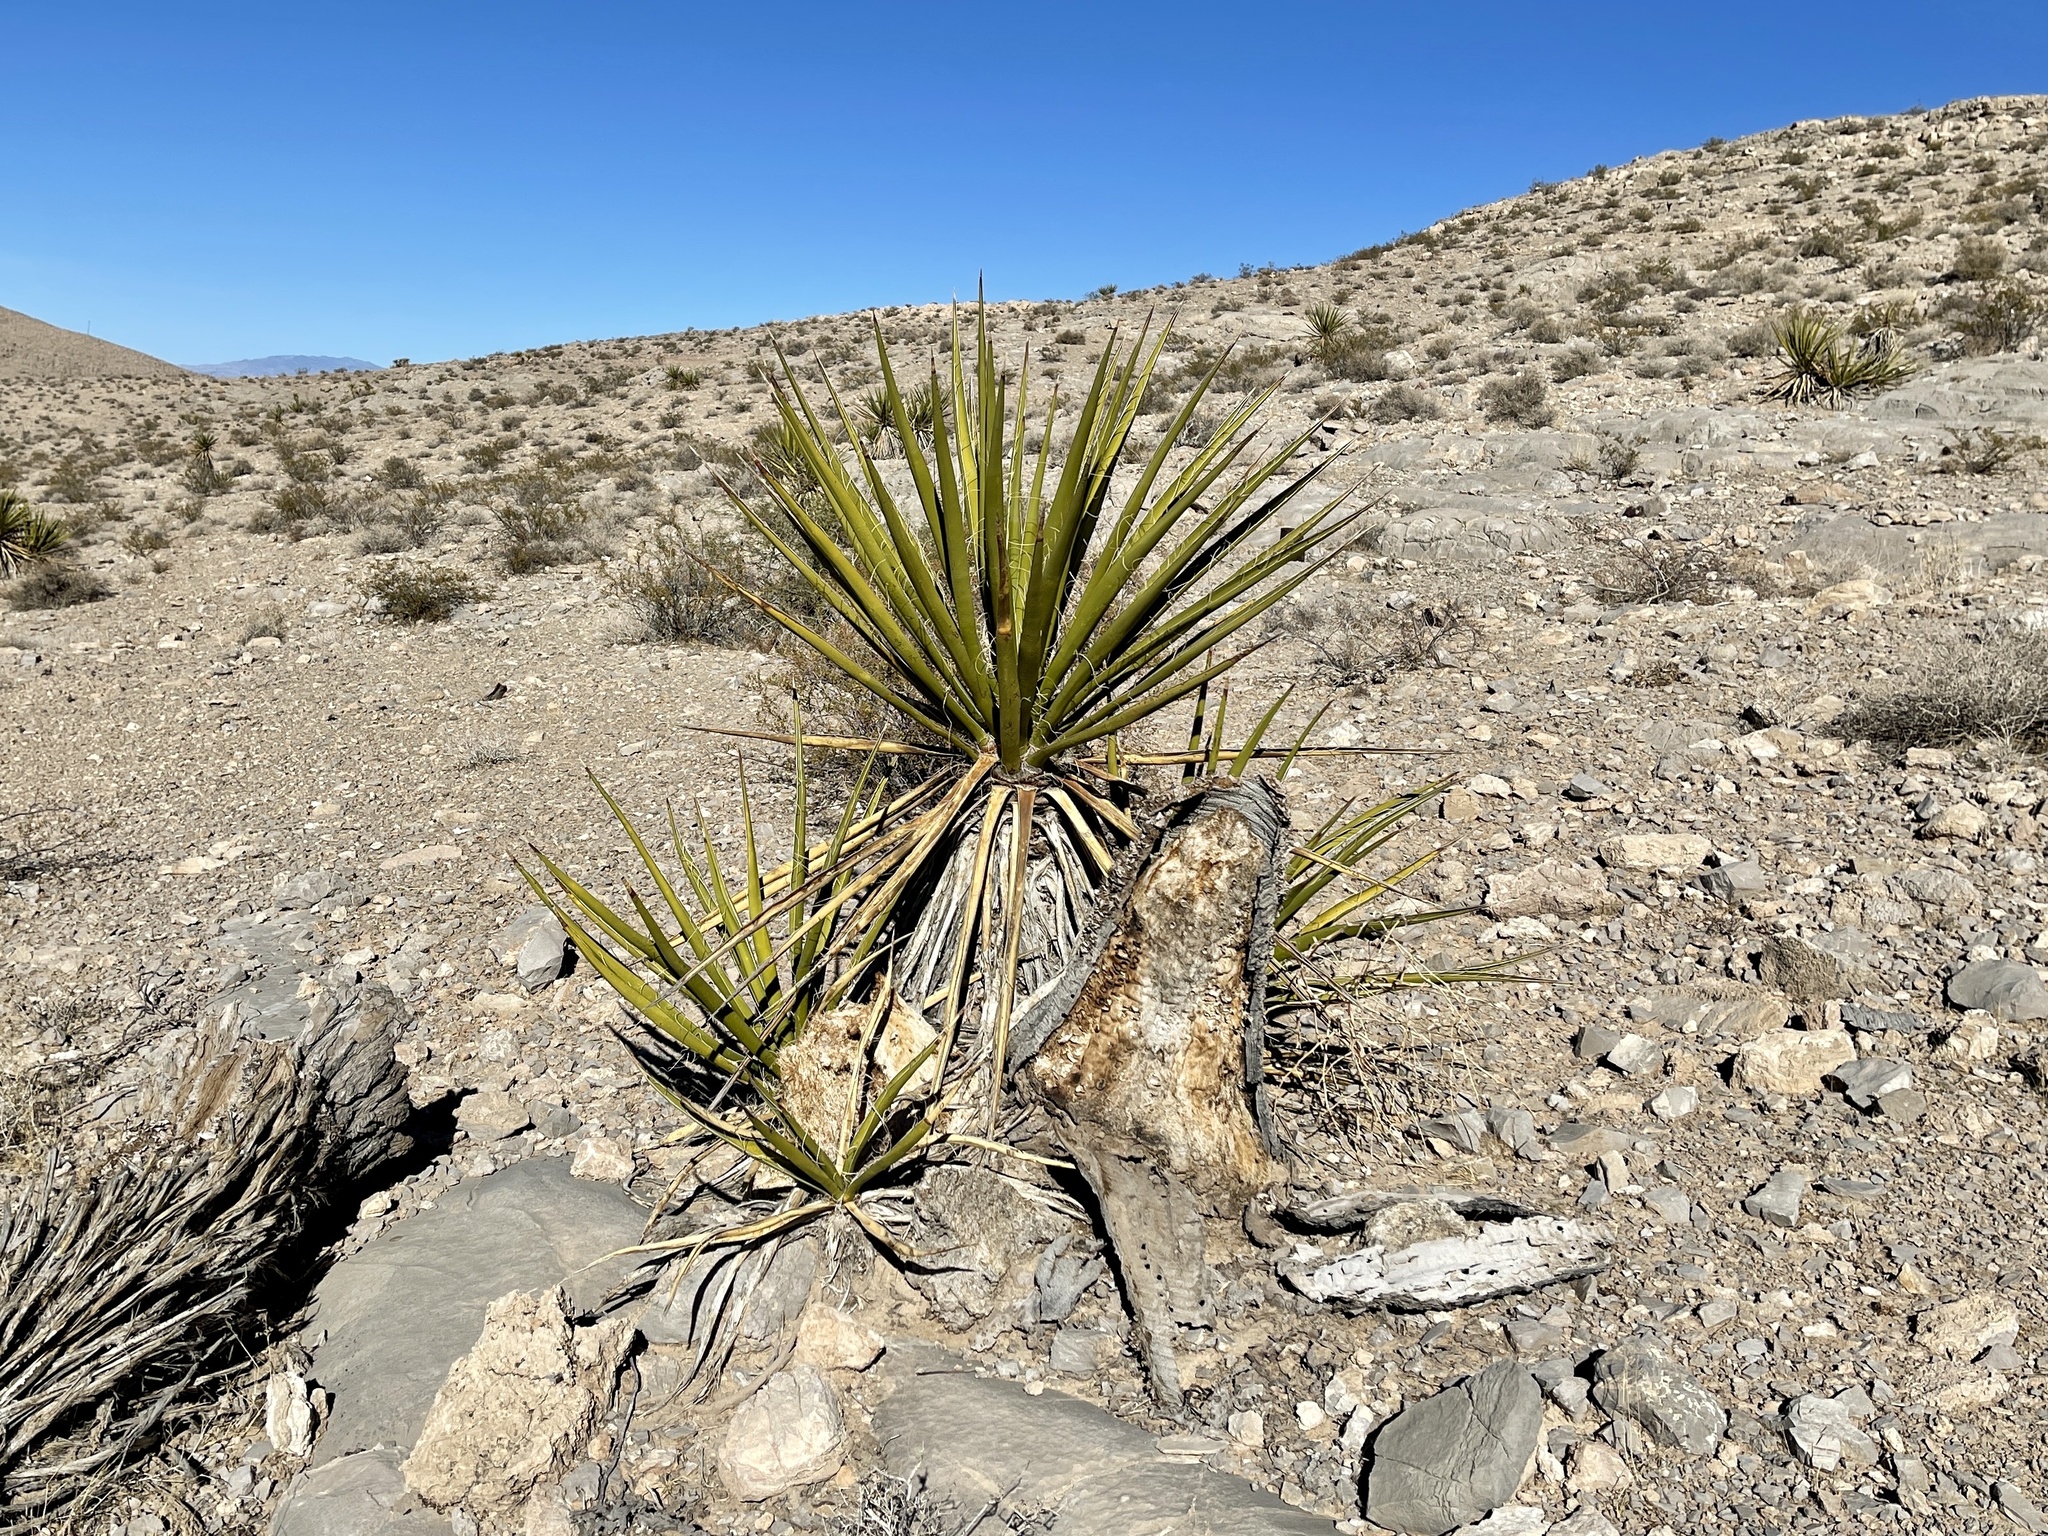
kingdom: Plantae
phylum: Tracheophyta
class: Liliopsida
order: Asparagales
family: Asparagaceae
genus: Yucca
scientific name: Yucca schidigera
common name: Mojave yucca
